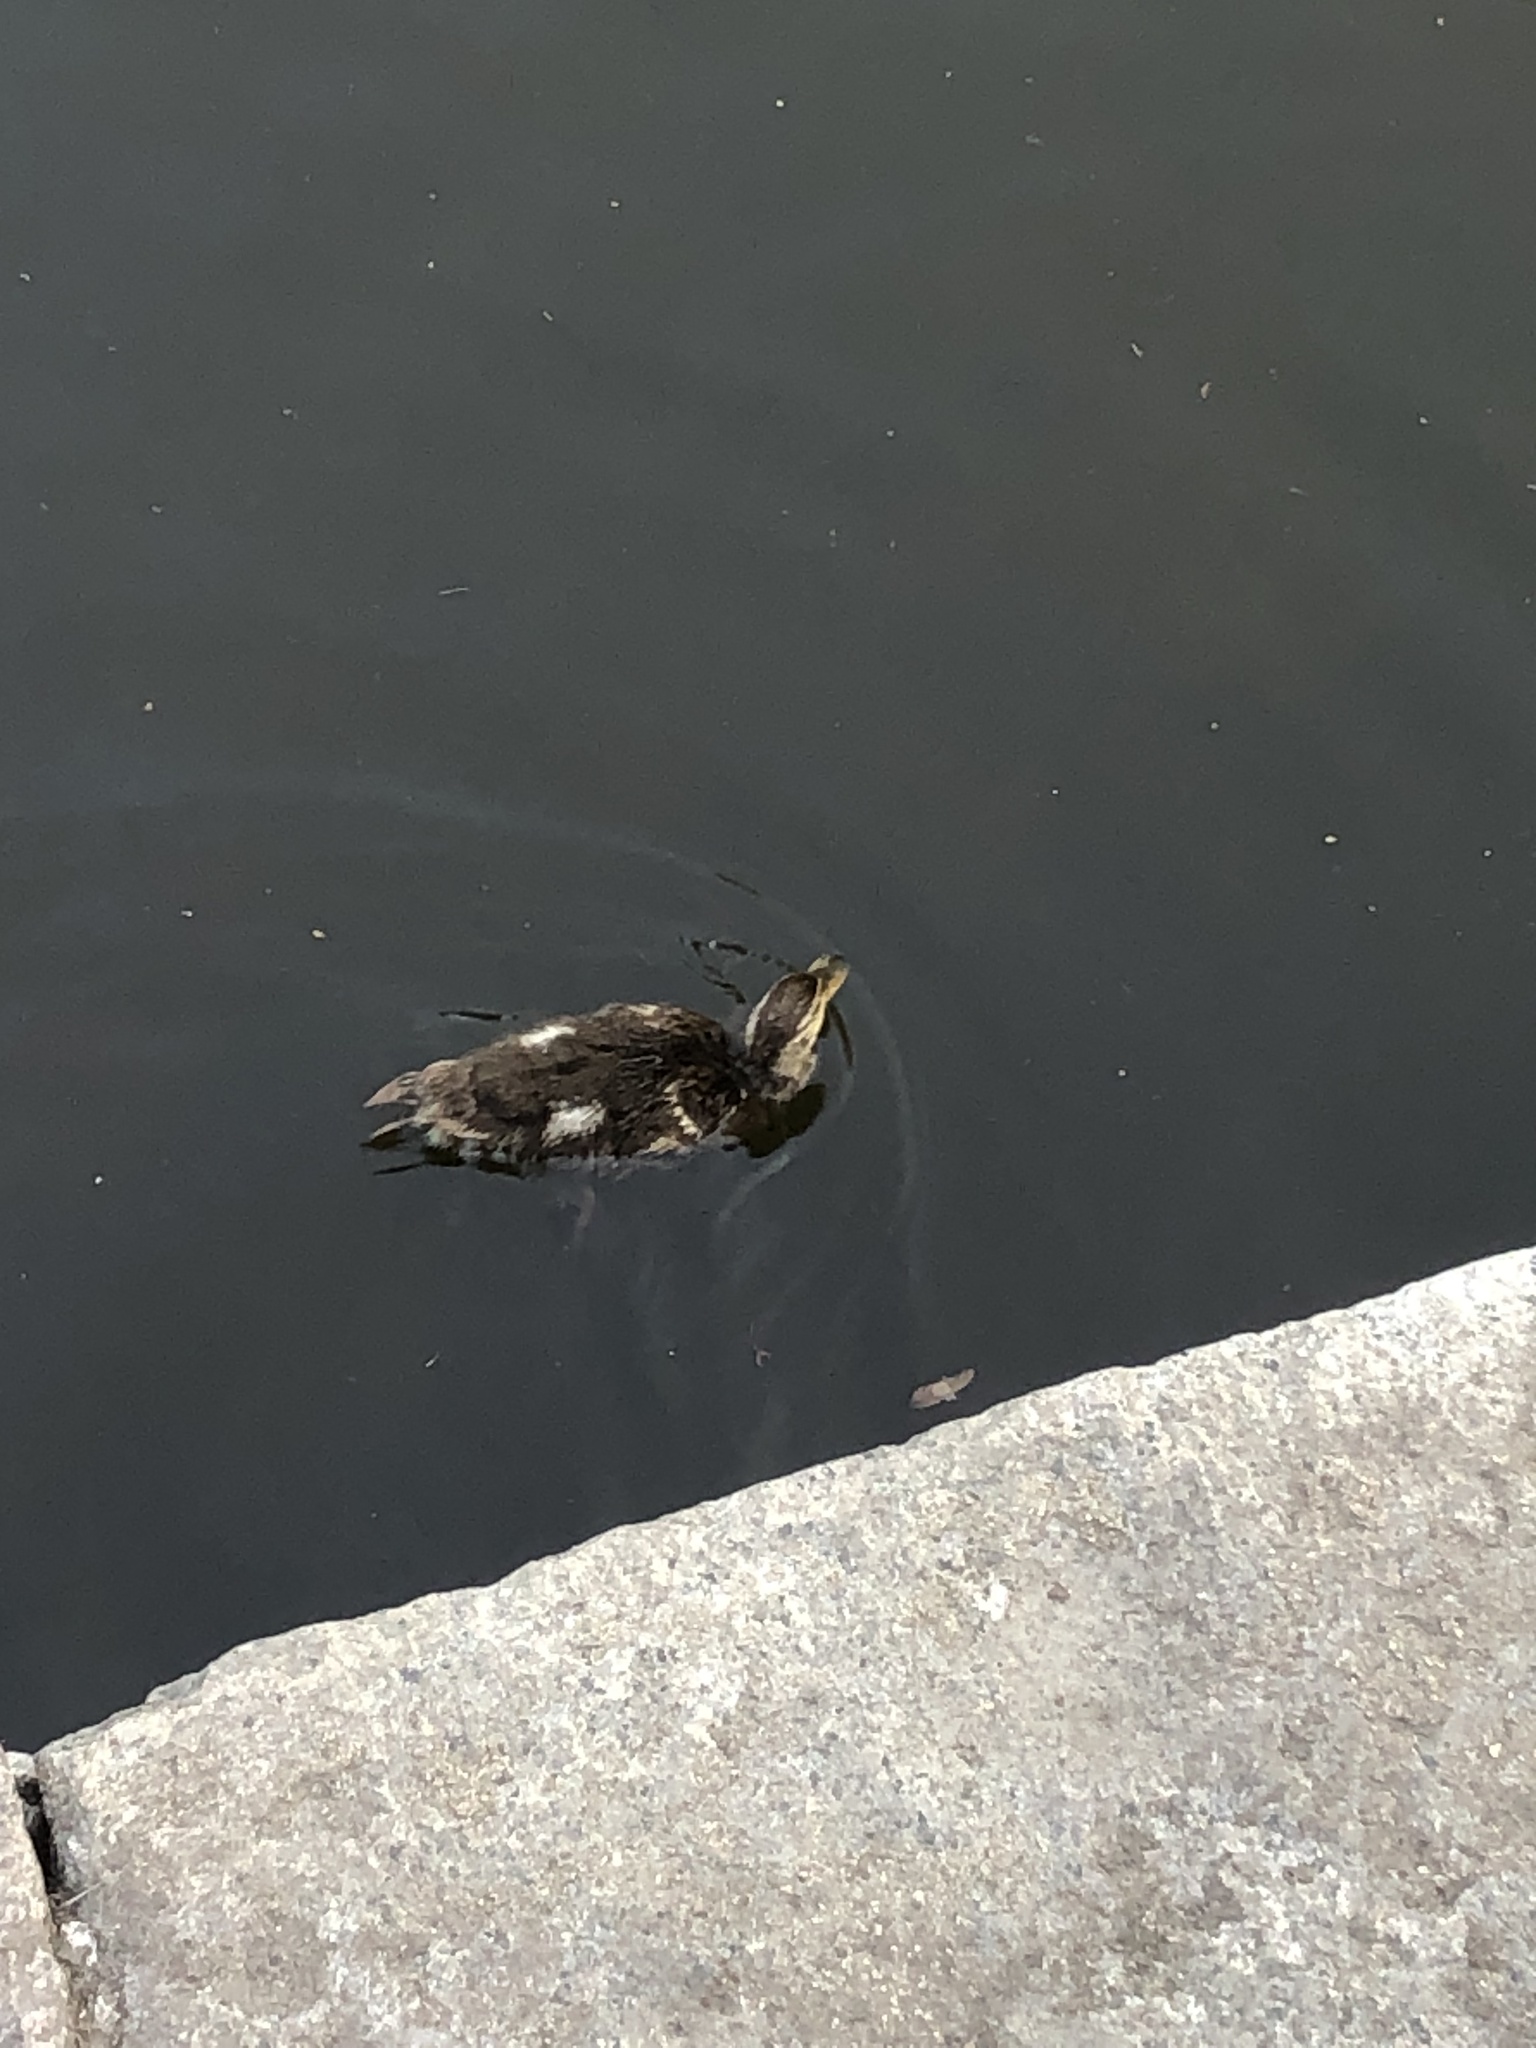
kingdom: Animalia
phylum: Chordata
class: Aves
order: Anseriformes
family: Anatidae
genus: Anas
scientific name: Anas platyrhynchos
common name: Mallard
